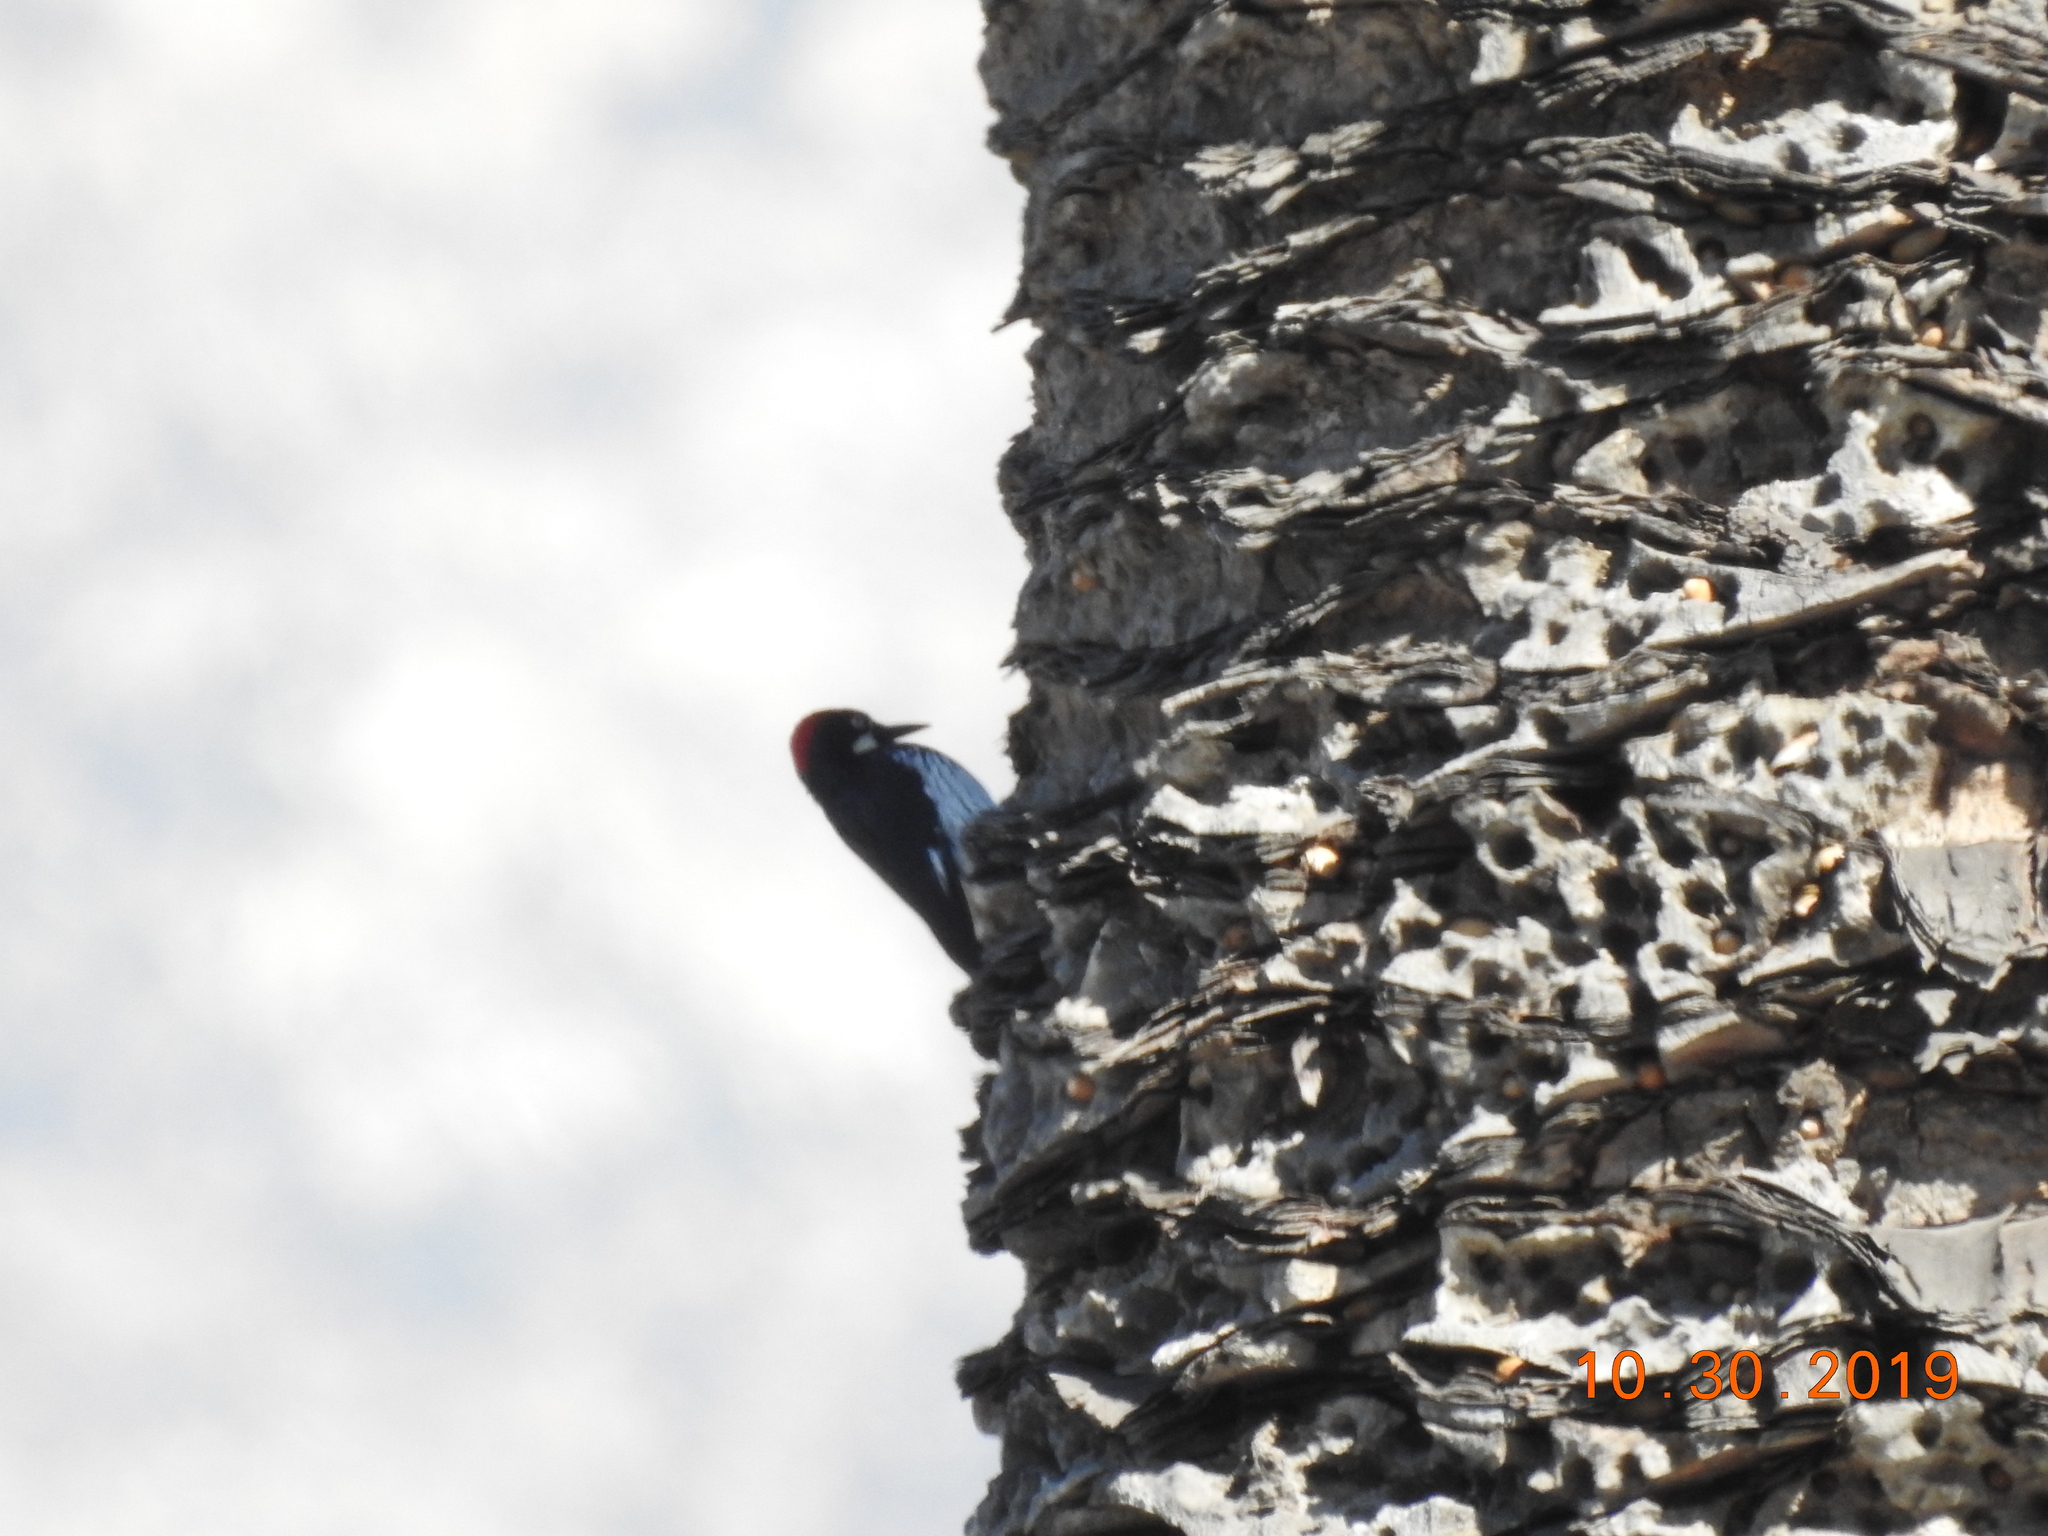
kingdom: Animalia
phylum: Chordata
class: Aves
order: Piciformes
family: Picidae
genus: Melanerpes
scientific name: Melanerpes formicivorus
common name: Acorn woodpecker
